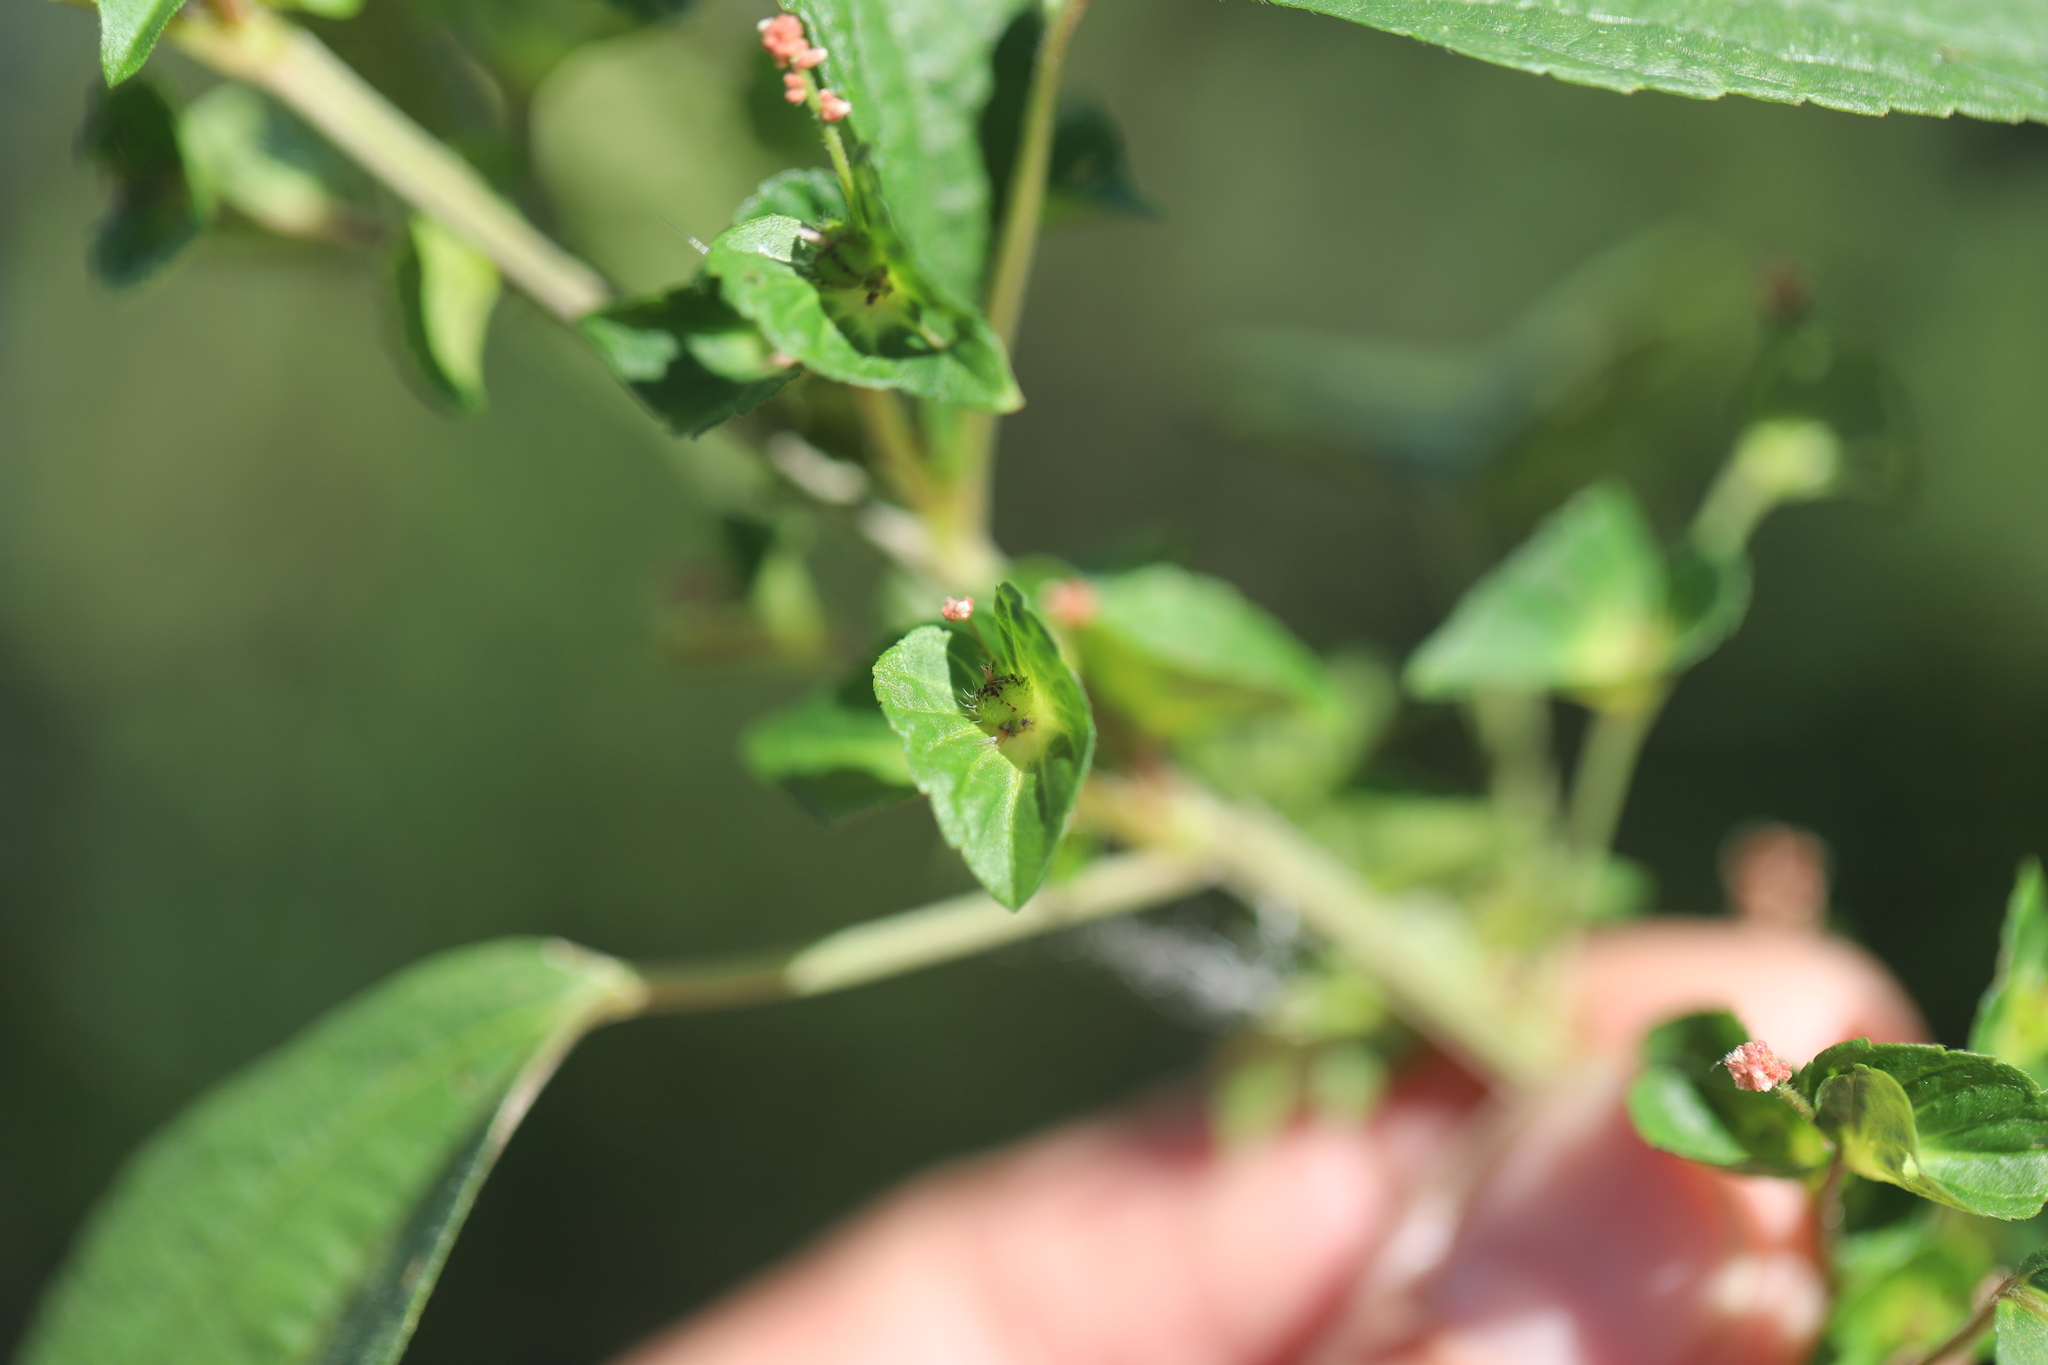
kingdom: Plantae
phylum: Tracheophyta
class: Magnoliopsida
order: Malpighiales
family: Euphorbiaceae
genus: Acalypha
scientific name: Acalypha australis
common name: Asian copperleaf
